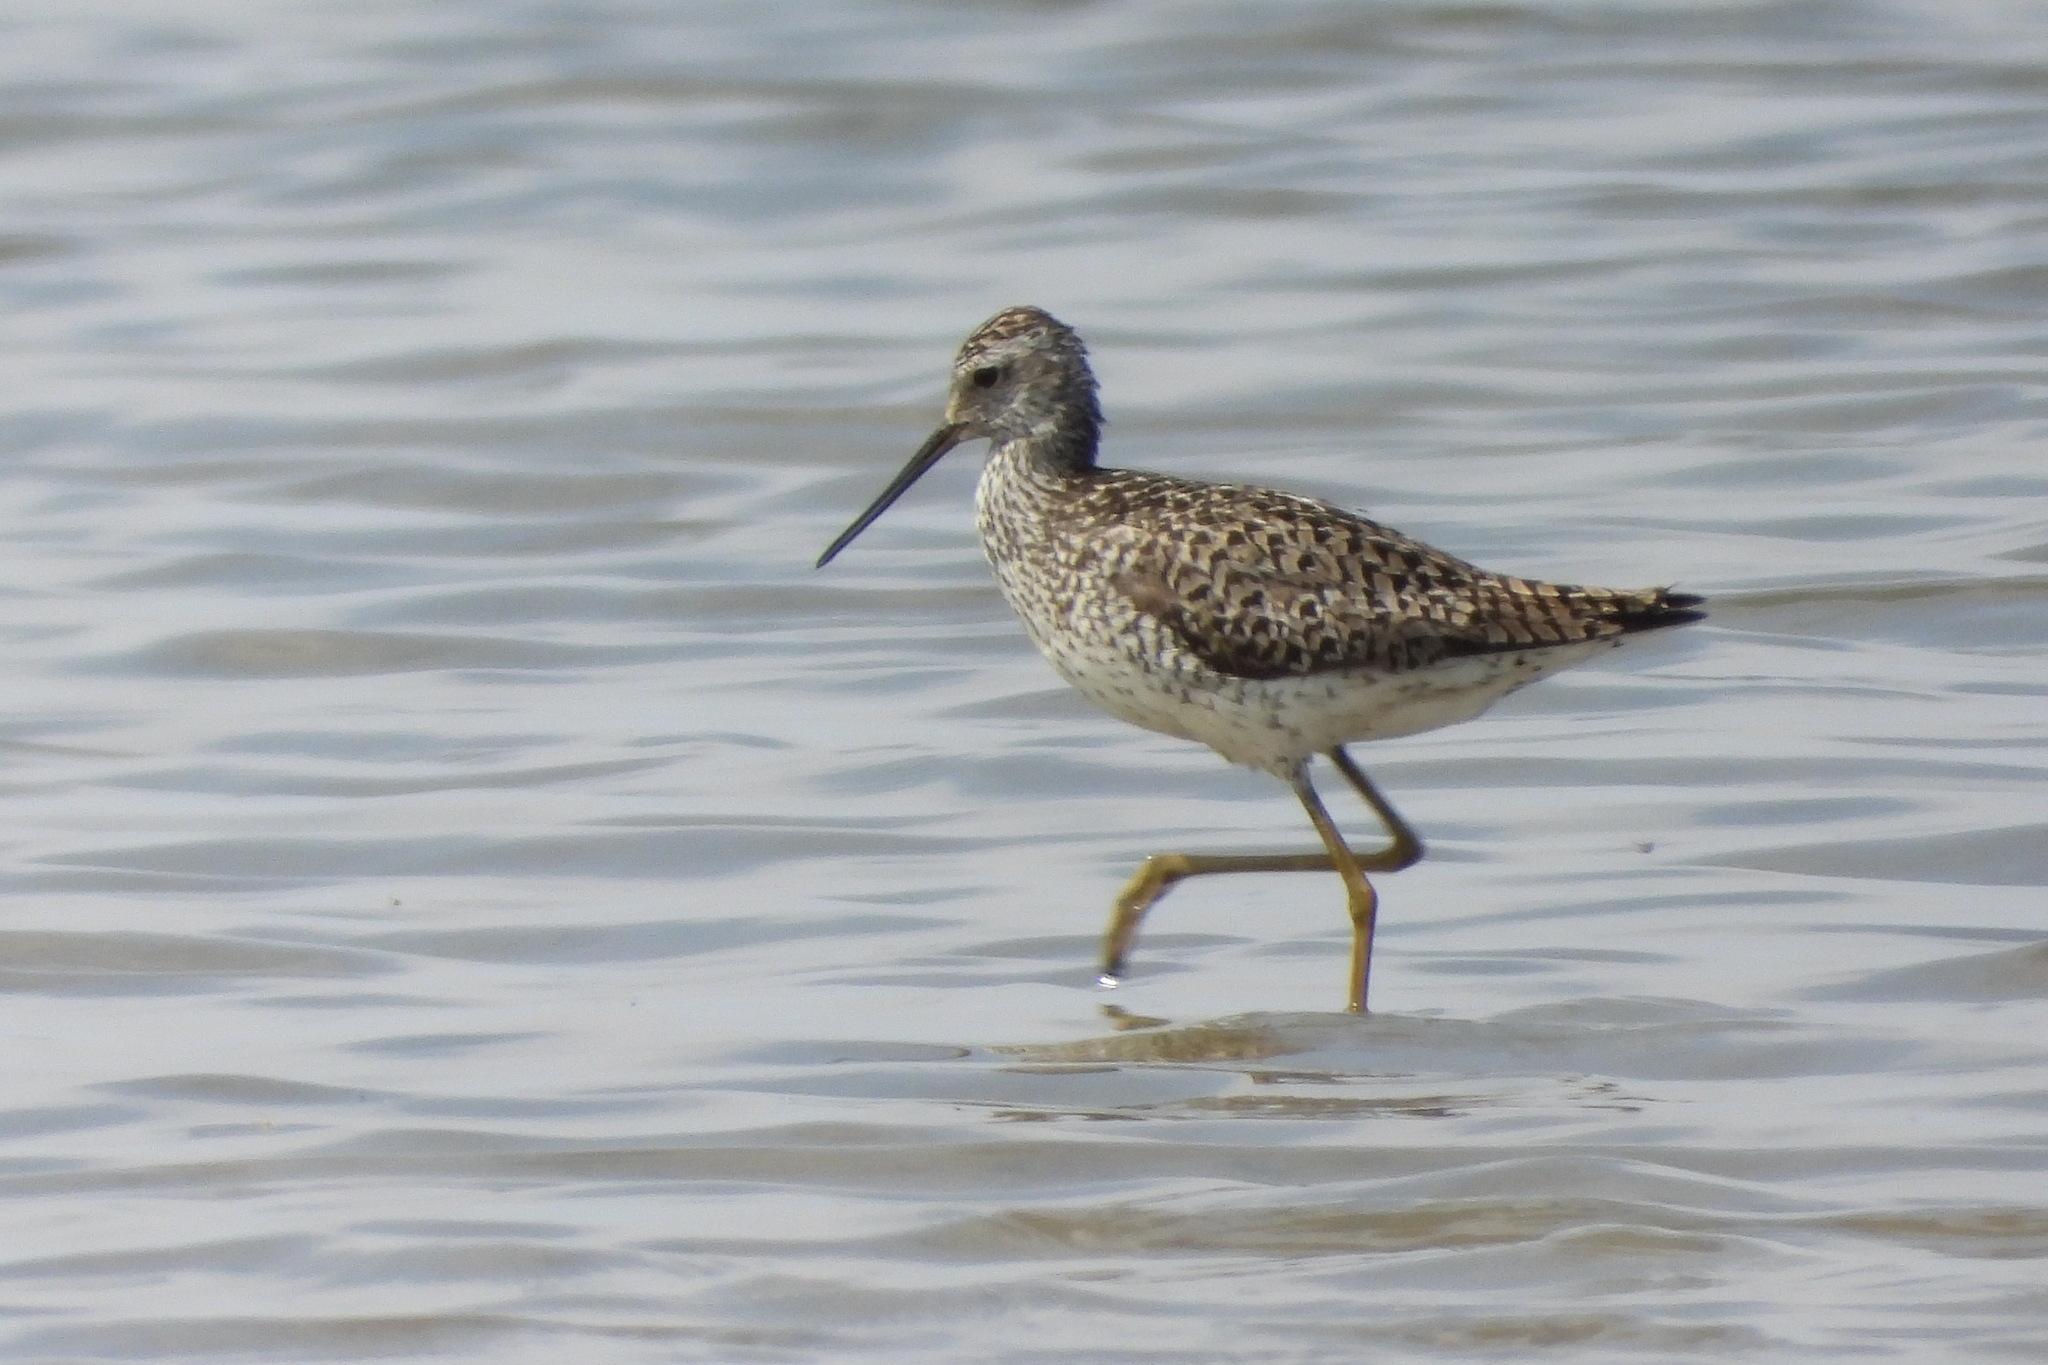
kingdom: Animalia
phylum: Chordata
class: Aves
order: Charadriiformes
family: Scolopacidae
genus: Tringa
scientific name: Tringa stagnatilis
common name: Marsh sandpiper
